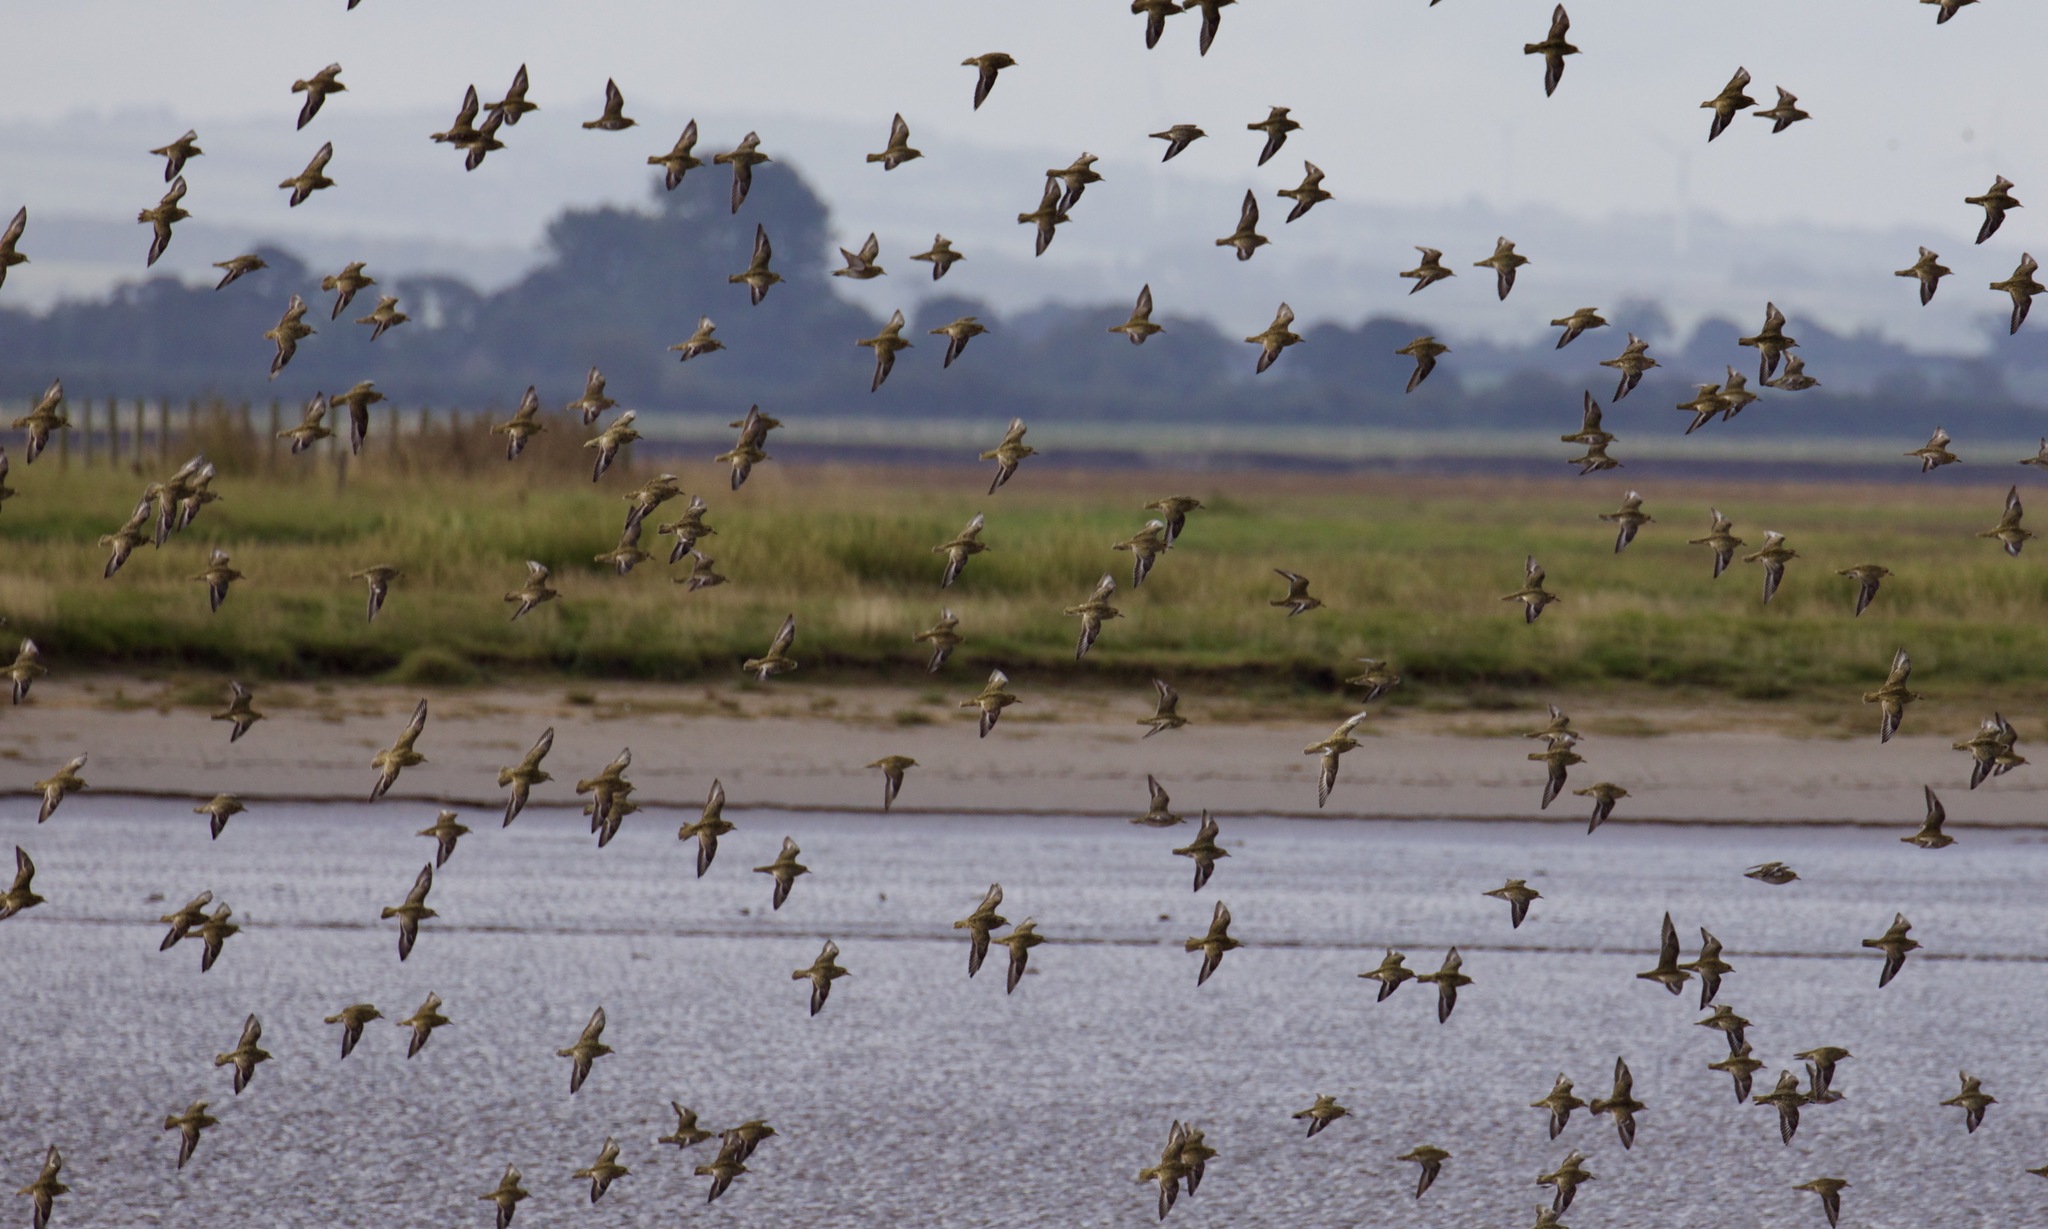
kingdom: Animalia
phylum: Chordata
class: Aves
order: Charadriiformes
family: Charadriidae
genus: Pluvialis
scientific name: Pluvialis apricaria
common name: European golden plover
